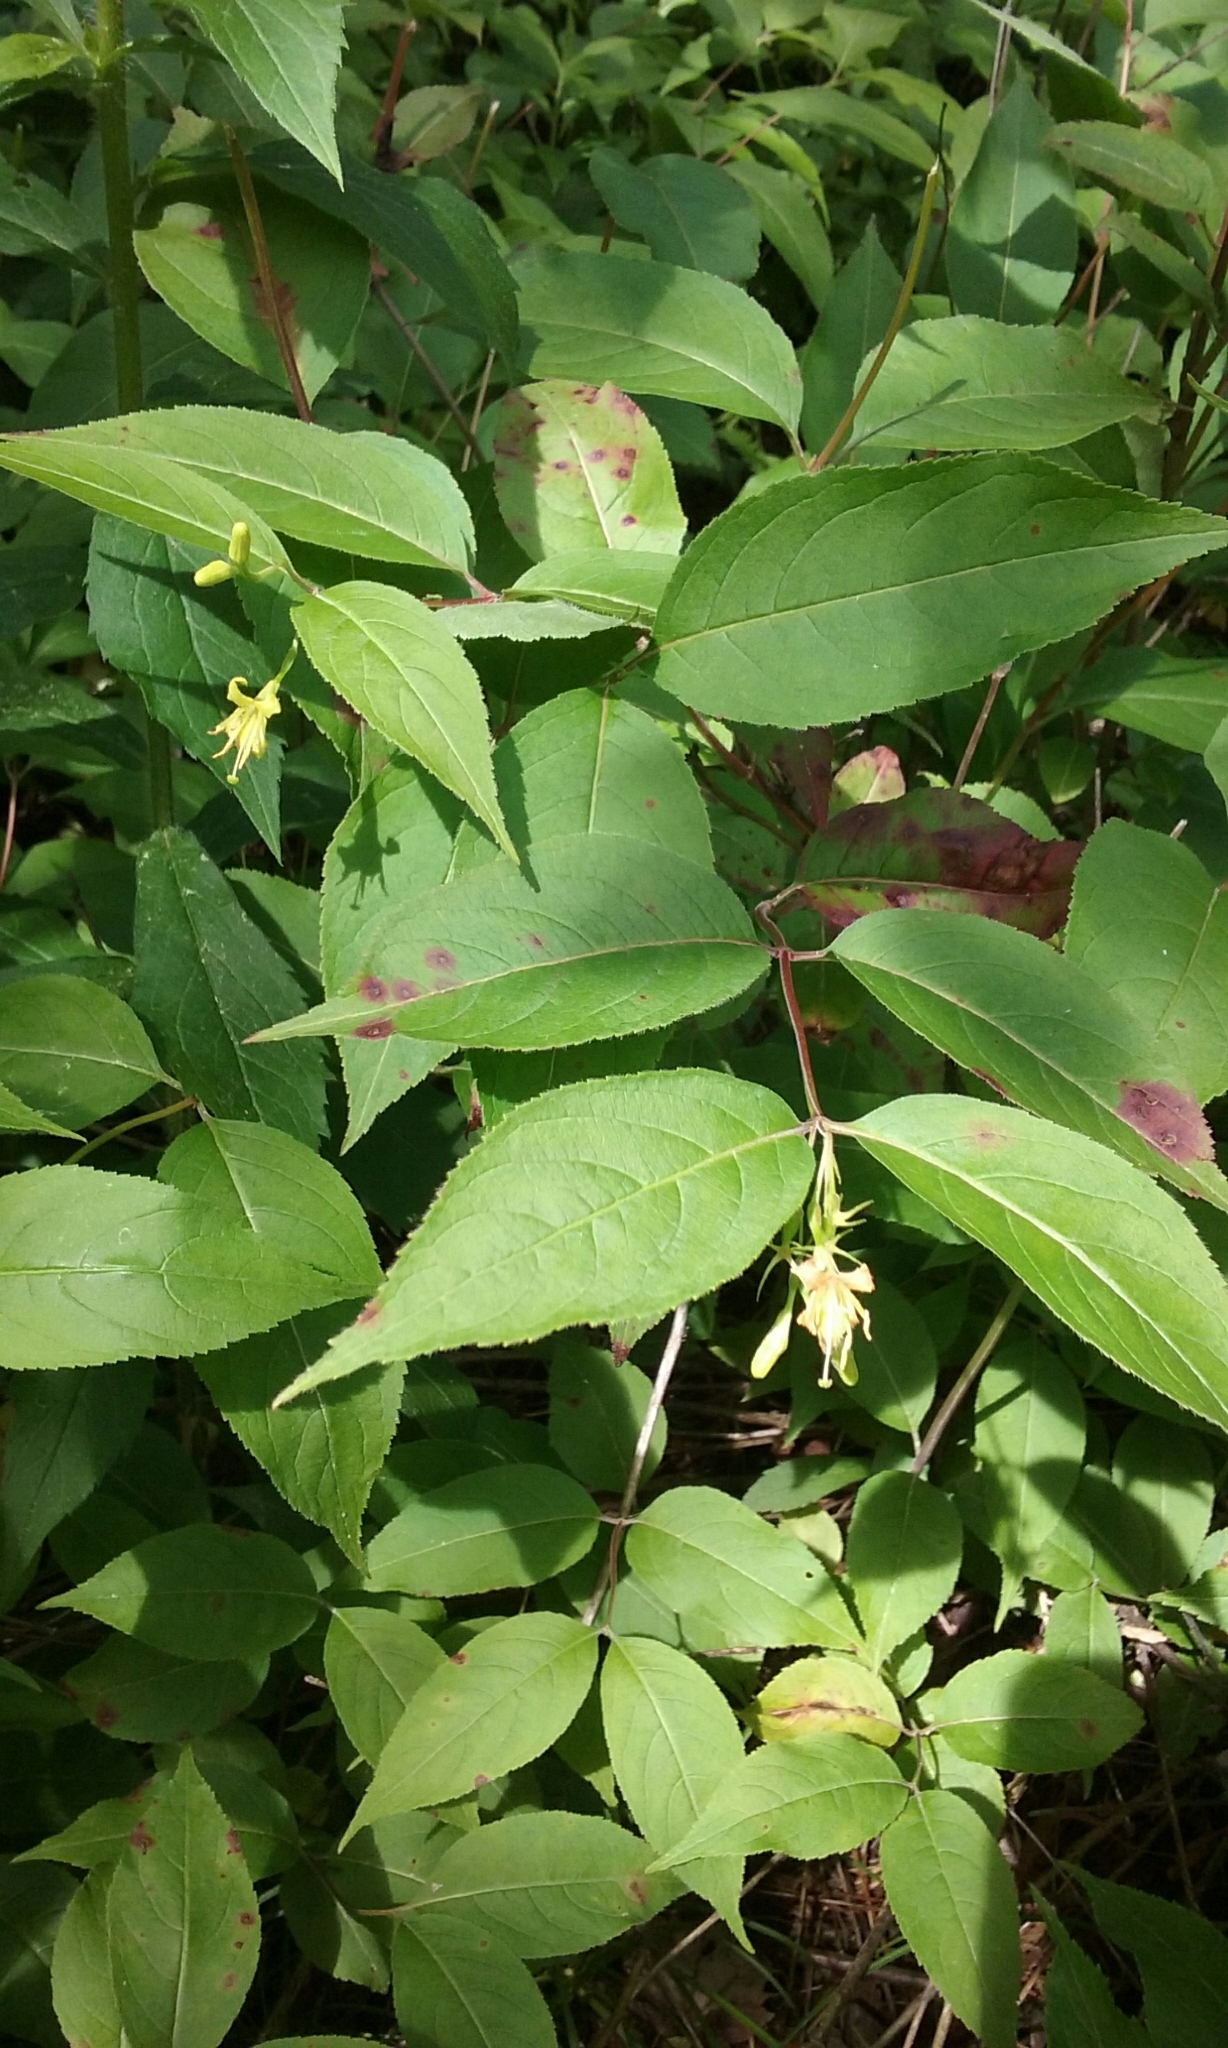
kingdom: Plantae
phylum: Tracheophyta
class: Magnoliopsida
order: Dipsacales
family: Caprifoliaceae
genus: Diervilla
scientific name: Diervilla lonicera
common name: Bush-honeysuckle
